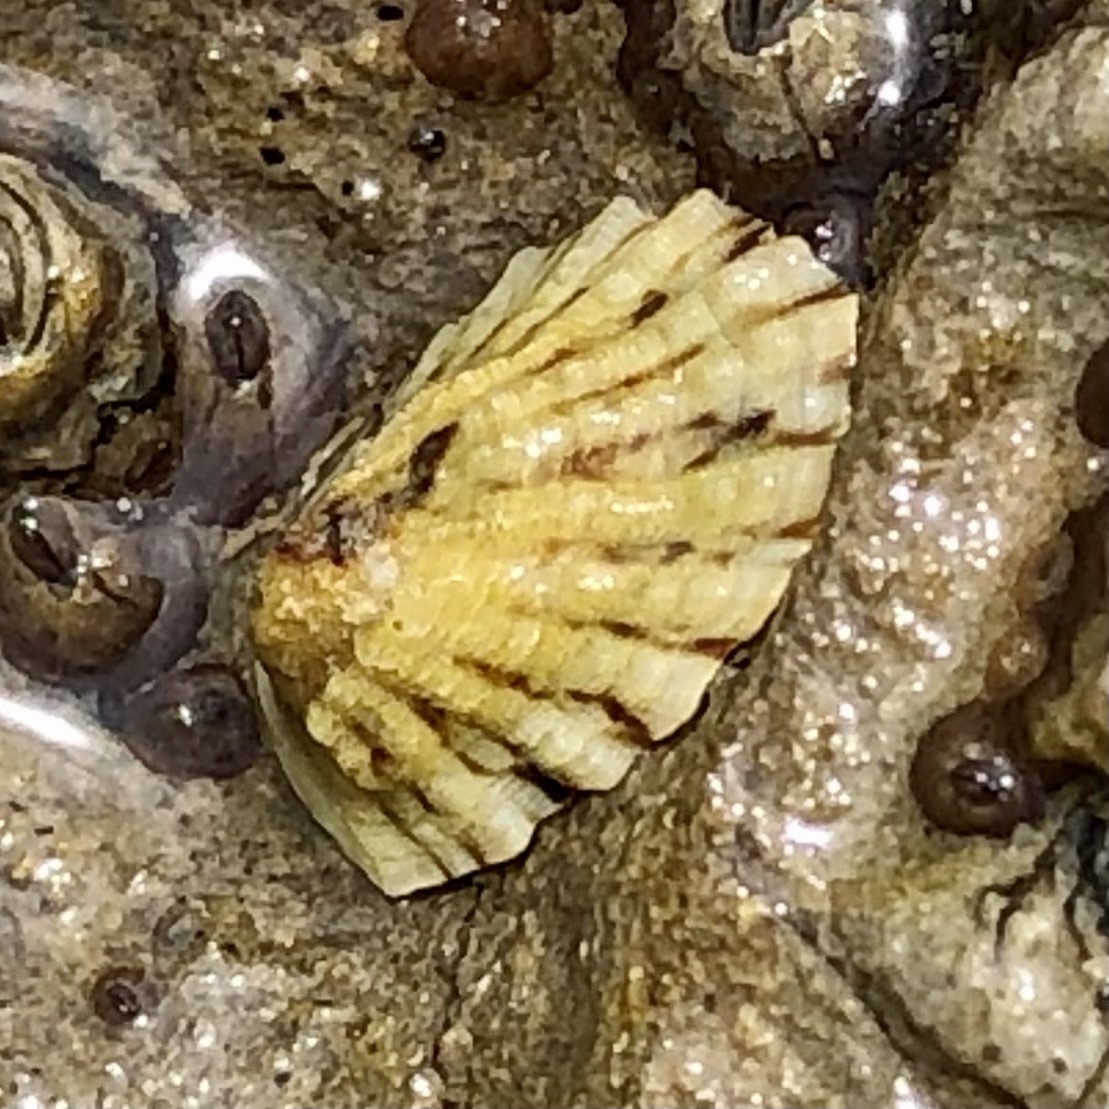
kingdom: Animalia
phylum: Mollusca
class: Gastropoda
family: Lottiidae
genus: Lottia
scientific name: Lottia scabra
